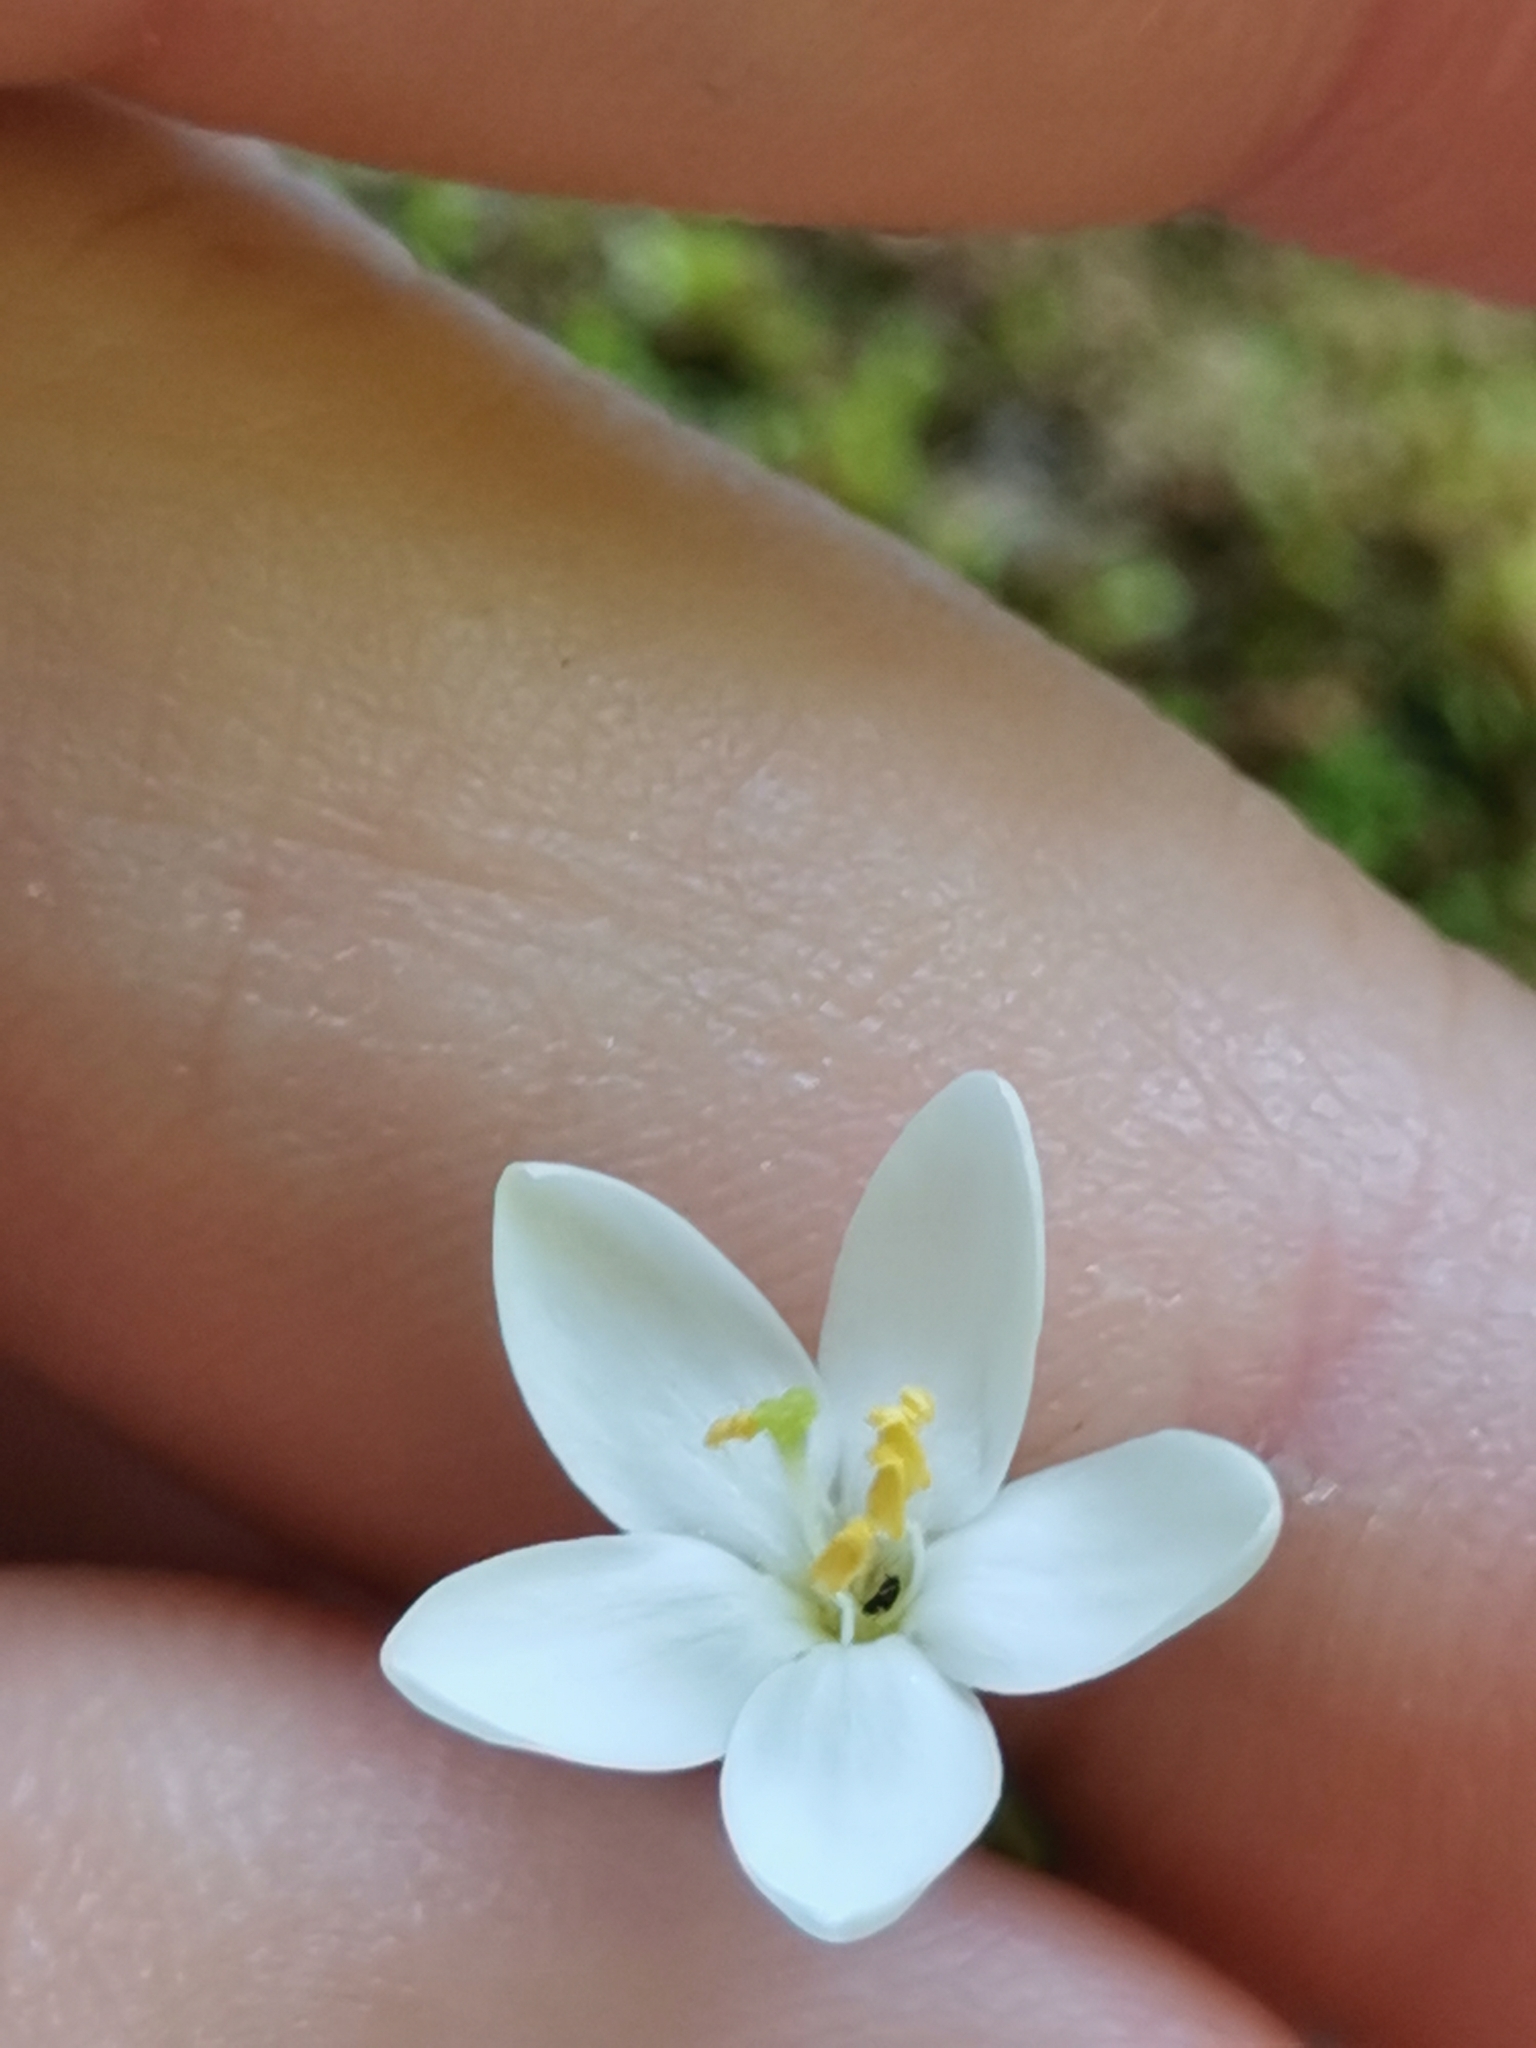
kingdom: Plantae
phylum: Tracheophyta
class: Magnoliopsida
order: Gentianales
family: Gentianaceae
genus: Centaurium
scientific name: Centaurium scilloides
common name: Perennial centaury
